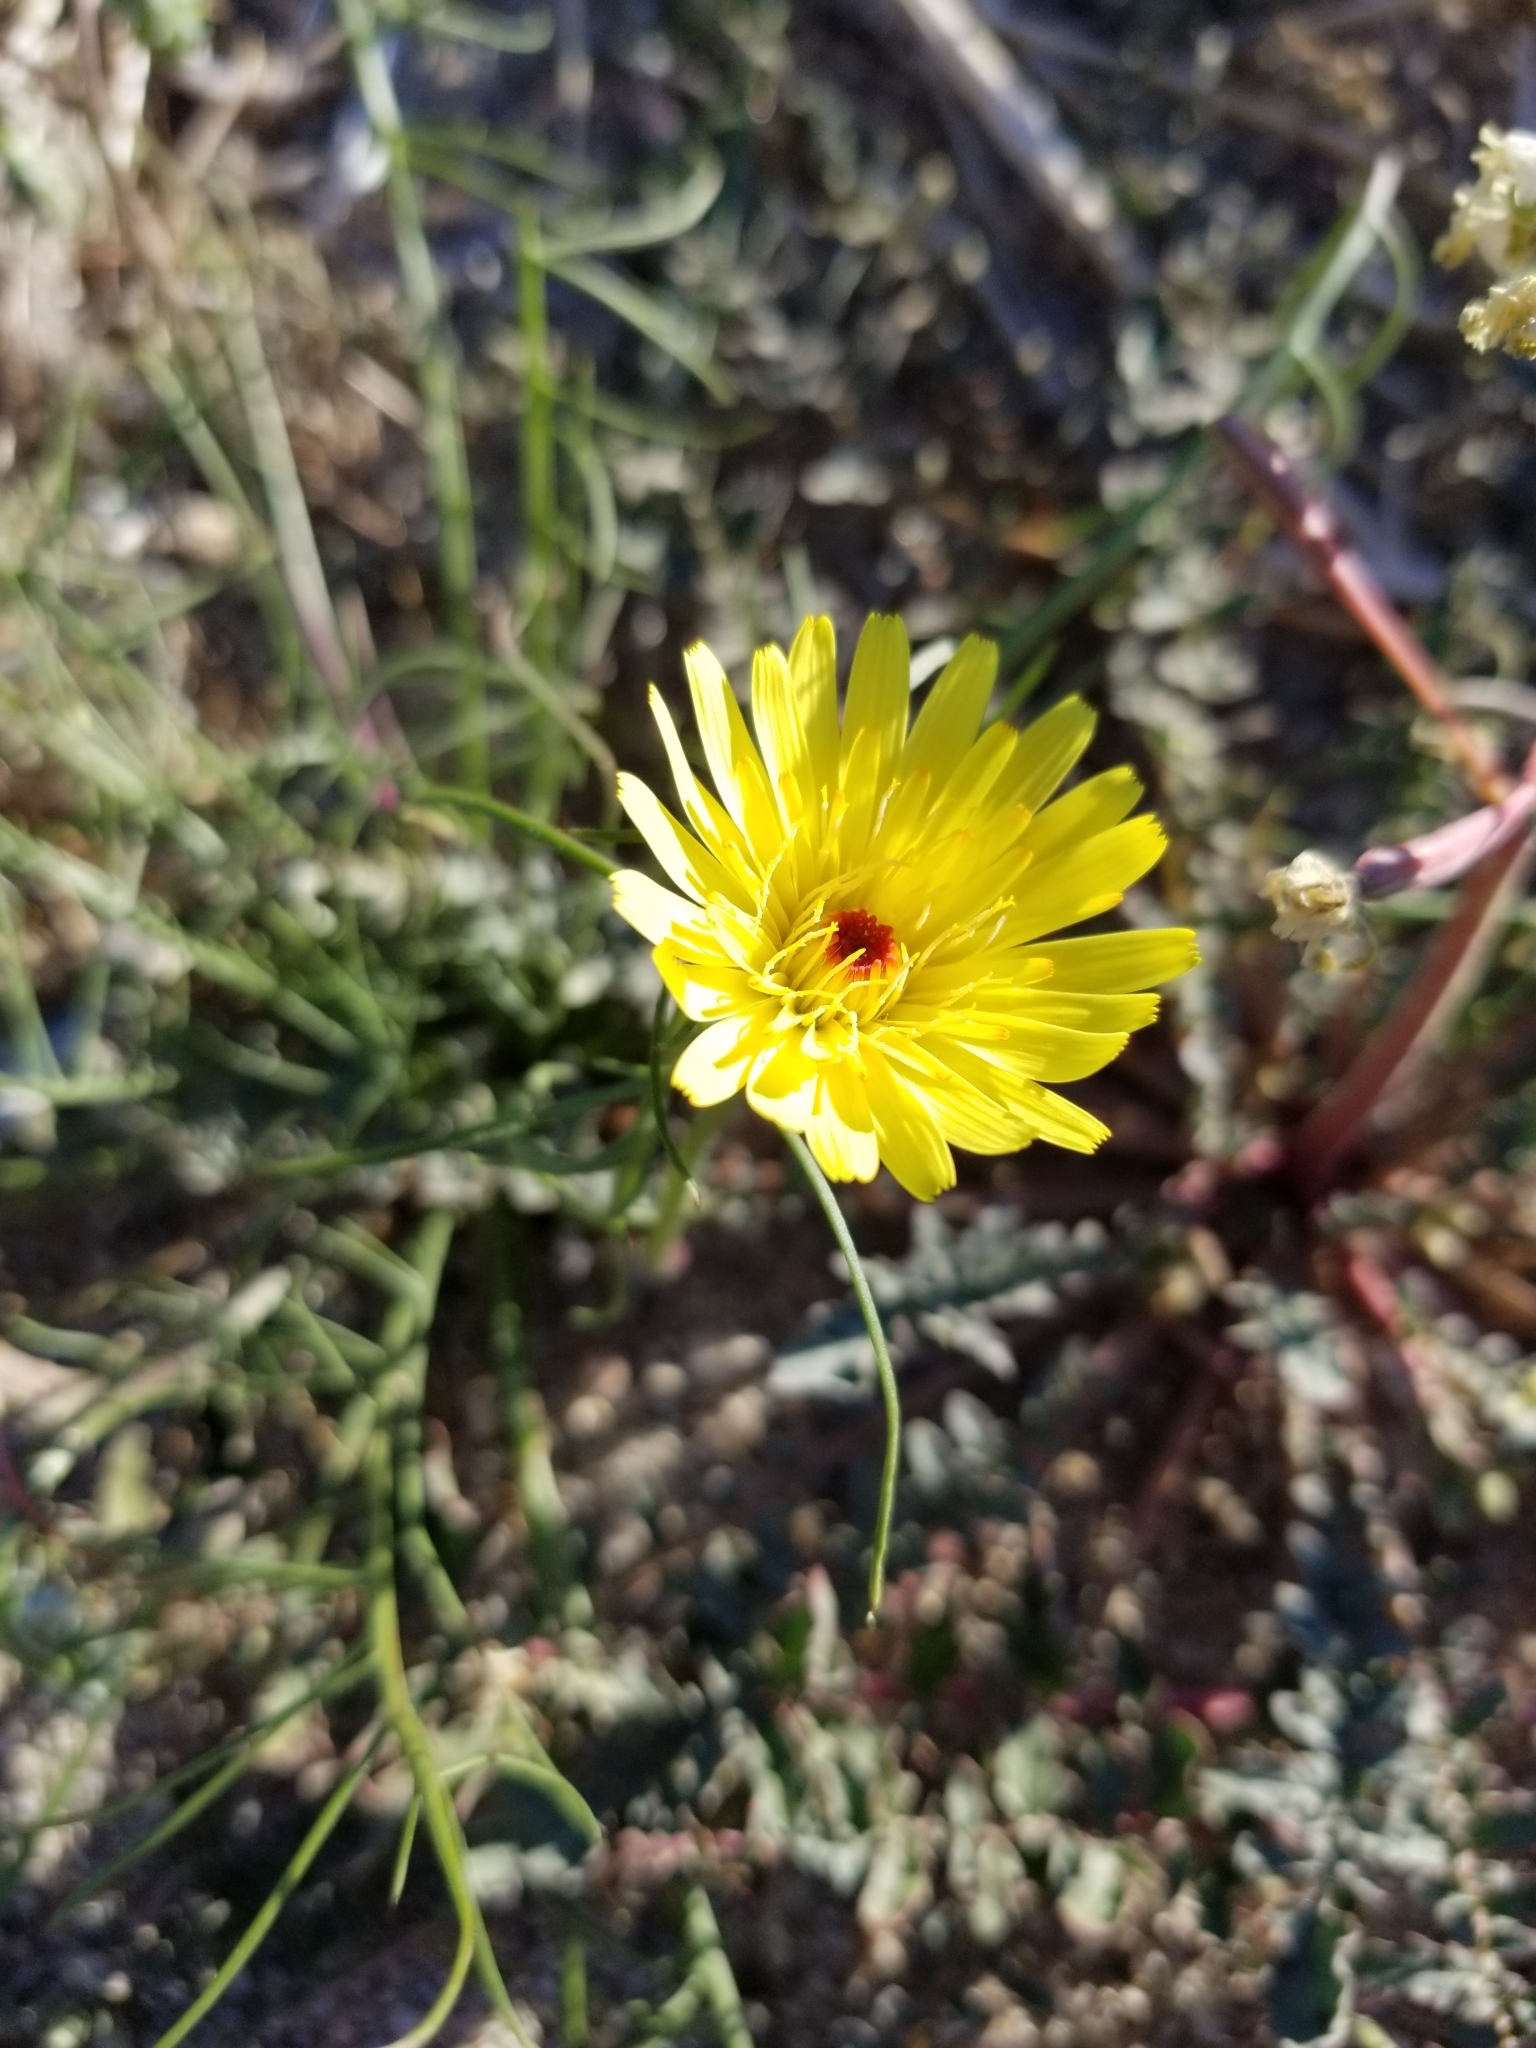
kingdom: Plantae
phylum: Tracheophyta
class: Magnoliopsida
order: Asterales
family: Asteraceae
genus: Malacothrix
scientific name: Malacothrix glabrata
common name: Smooth desert-dandelion
